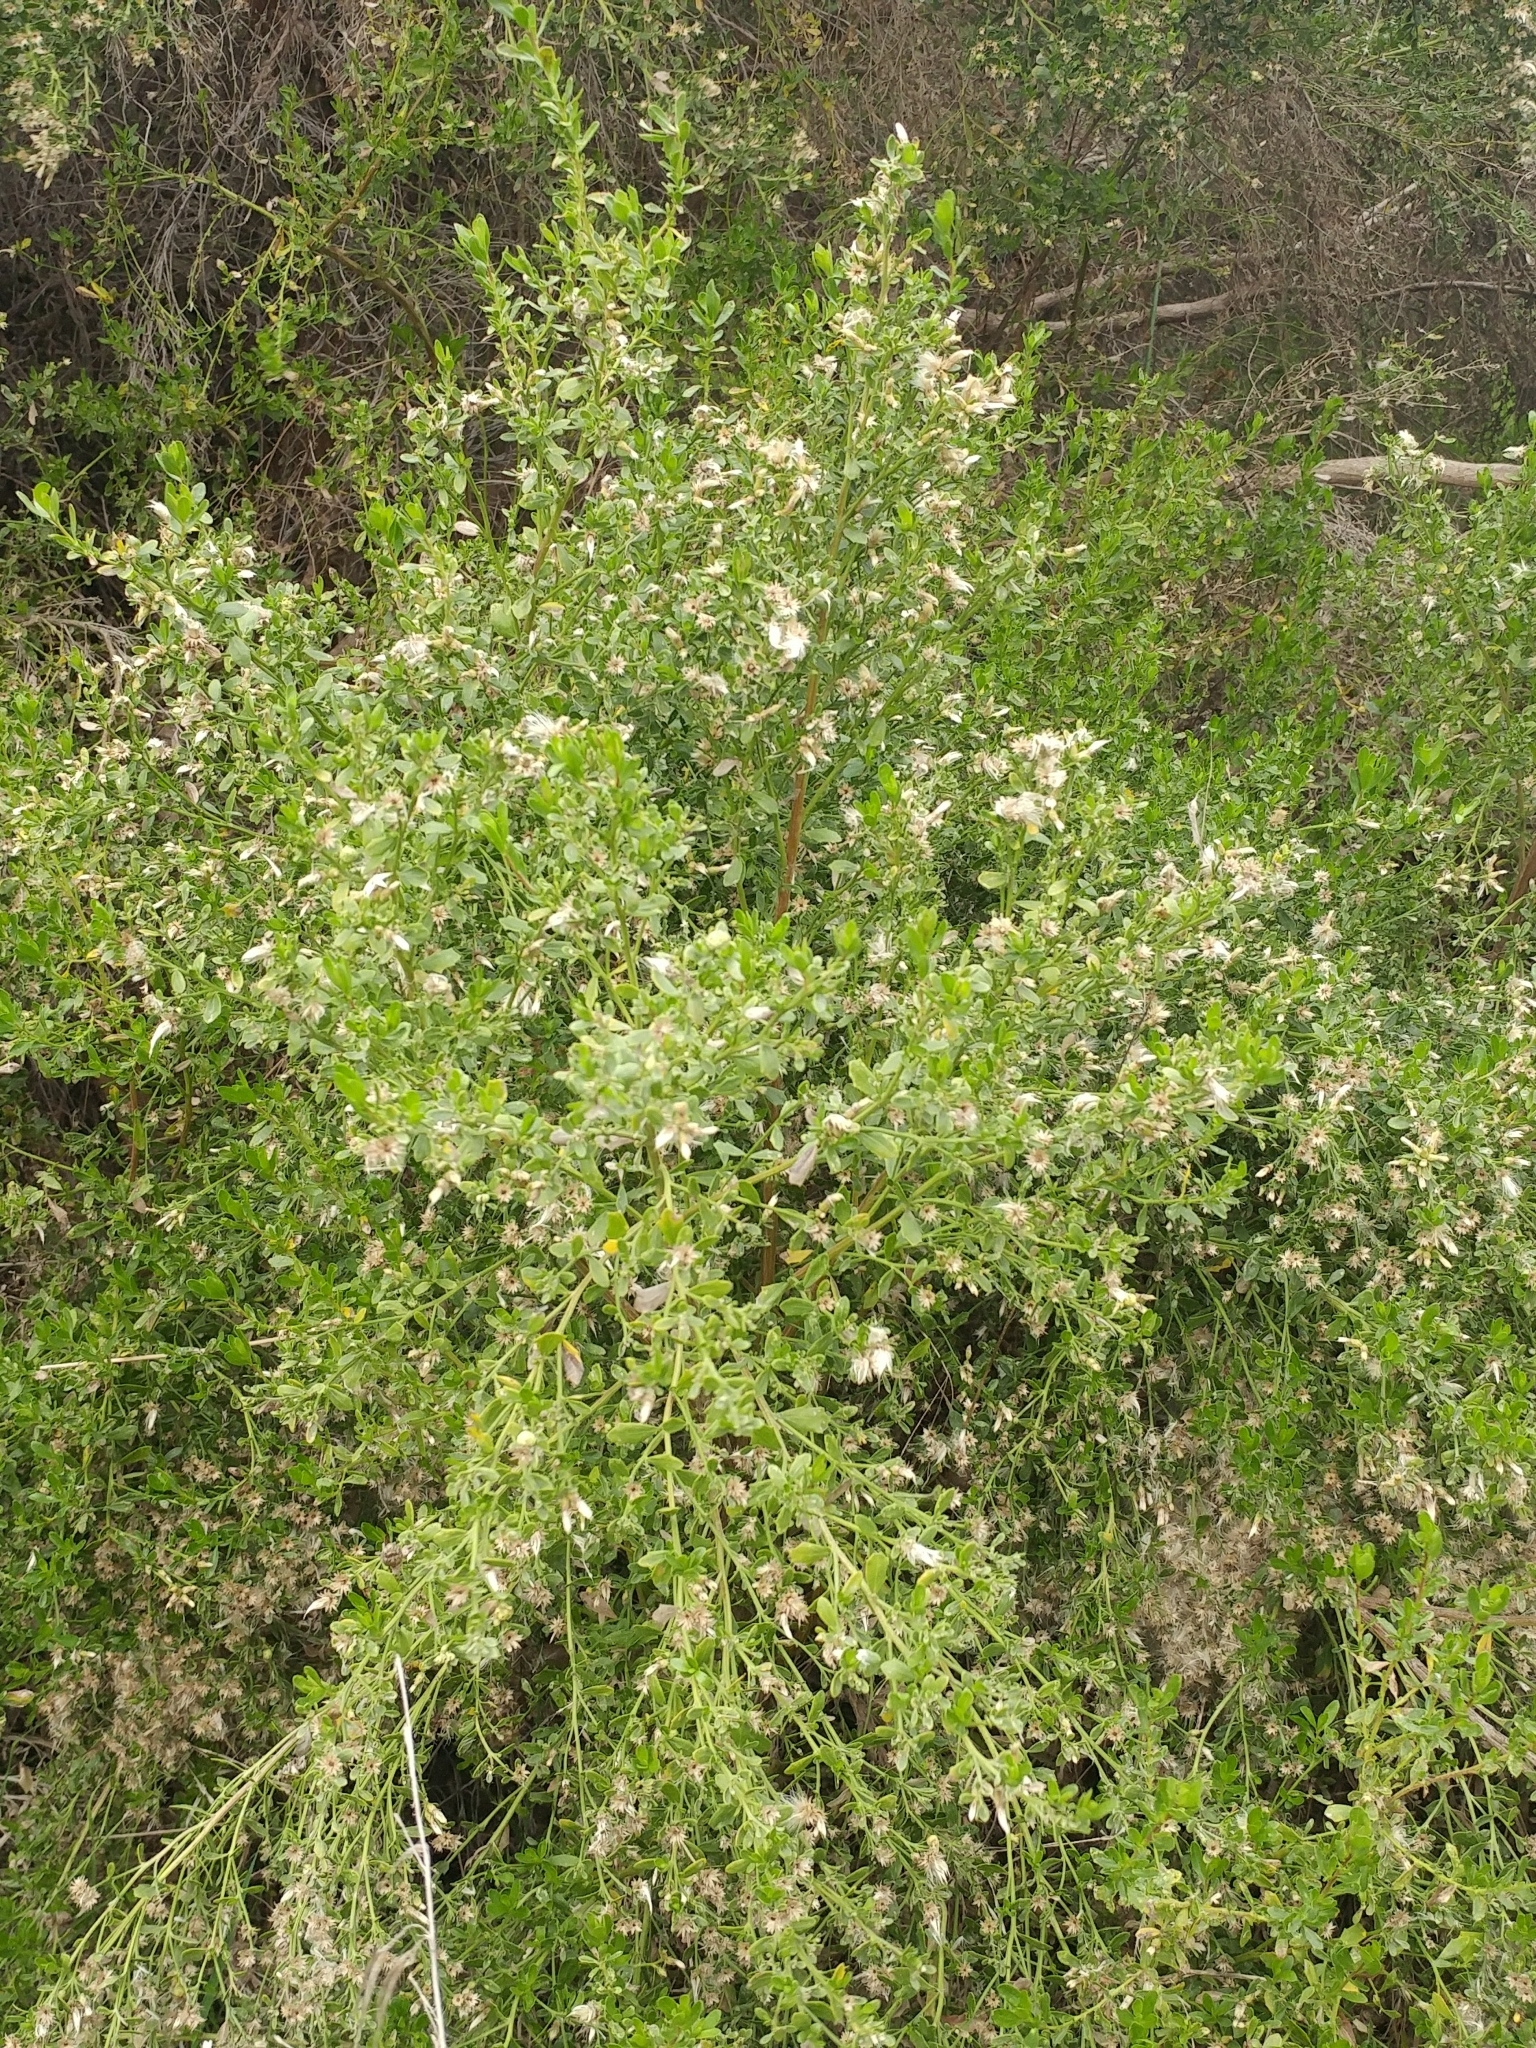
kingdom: Plantae
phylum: Tracheophyta
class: Magnoliopsida
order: Asterales
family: Asteraceae
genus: Baccharis
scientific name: Baccharis pilularis
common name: Coyotebrush
